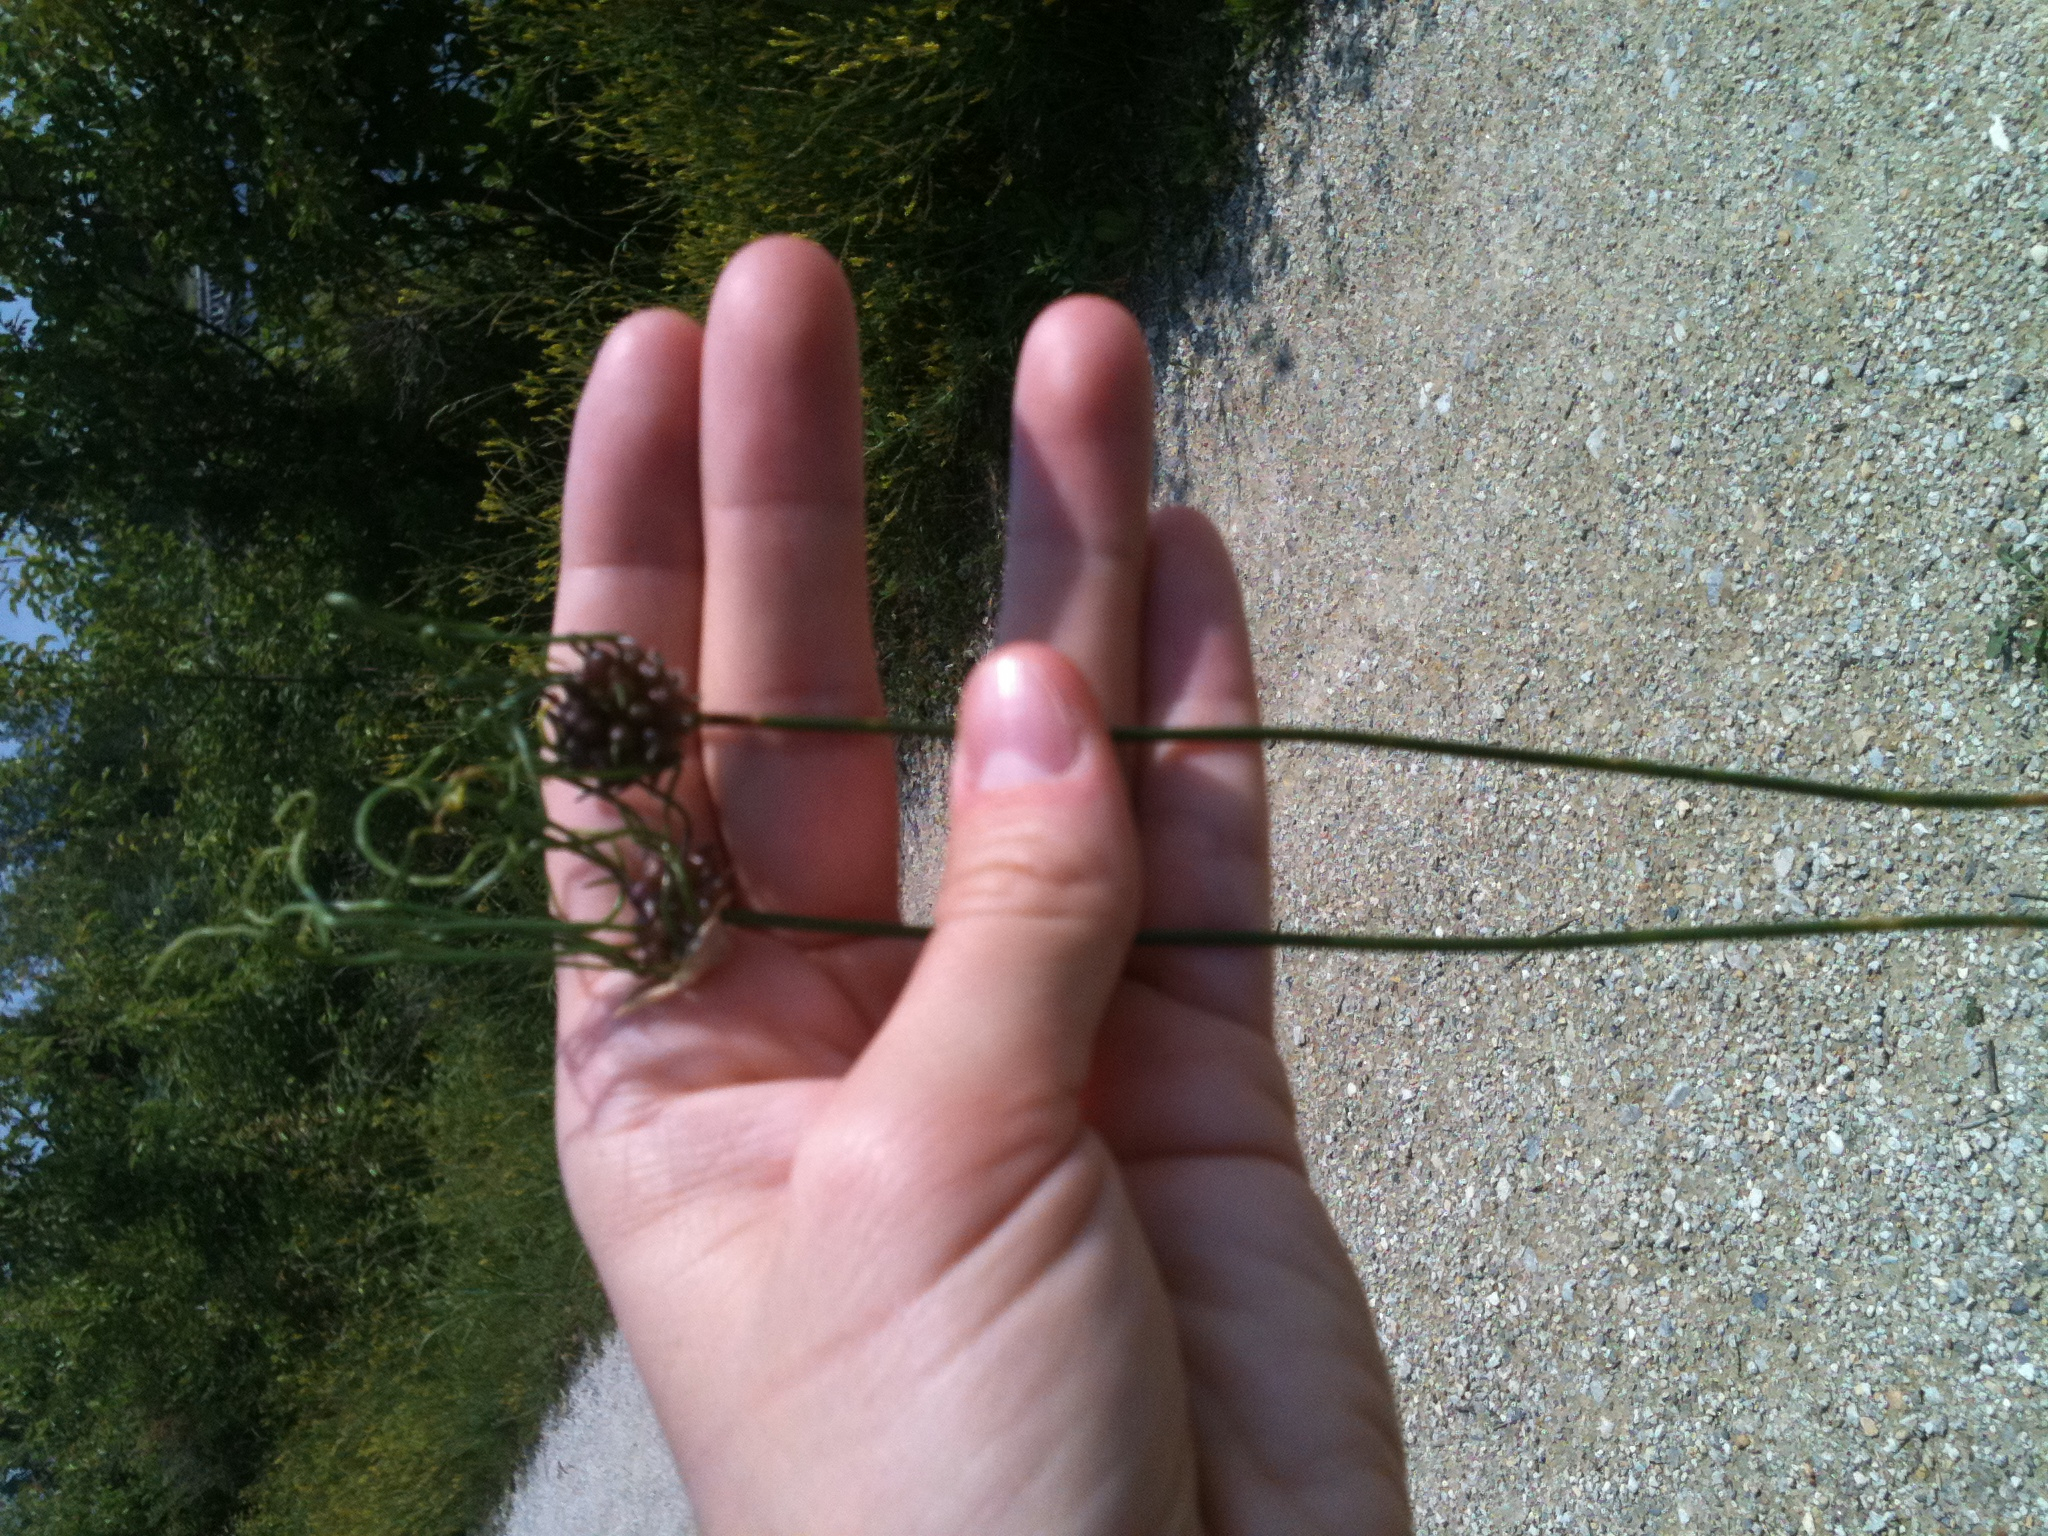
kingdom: Plantae
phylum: Tracheophyta
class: Liliopsida
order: Asparagales
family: Amaryllidaceae
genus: Allium
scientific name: Allium vineale
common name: Crow garlic
